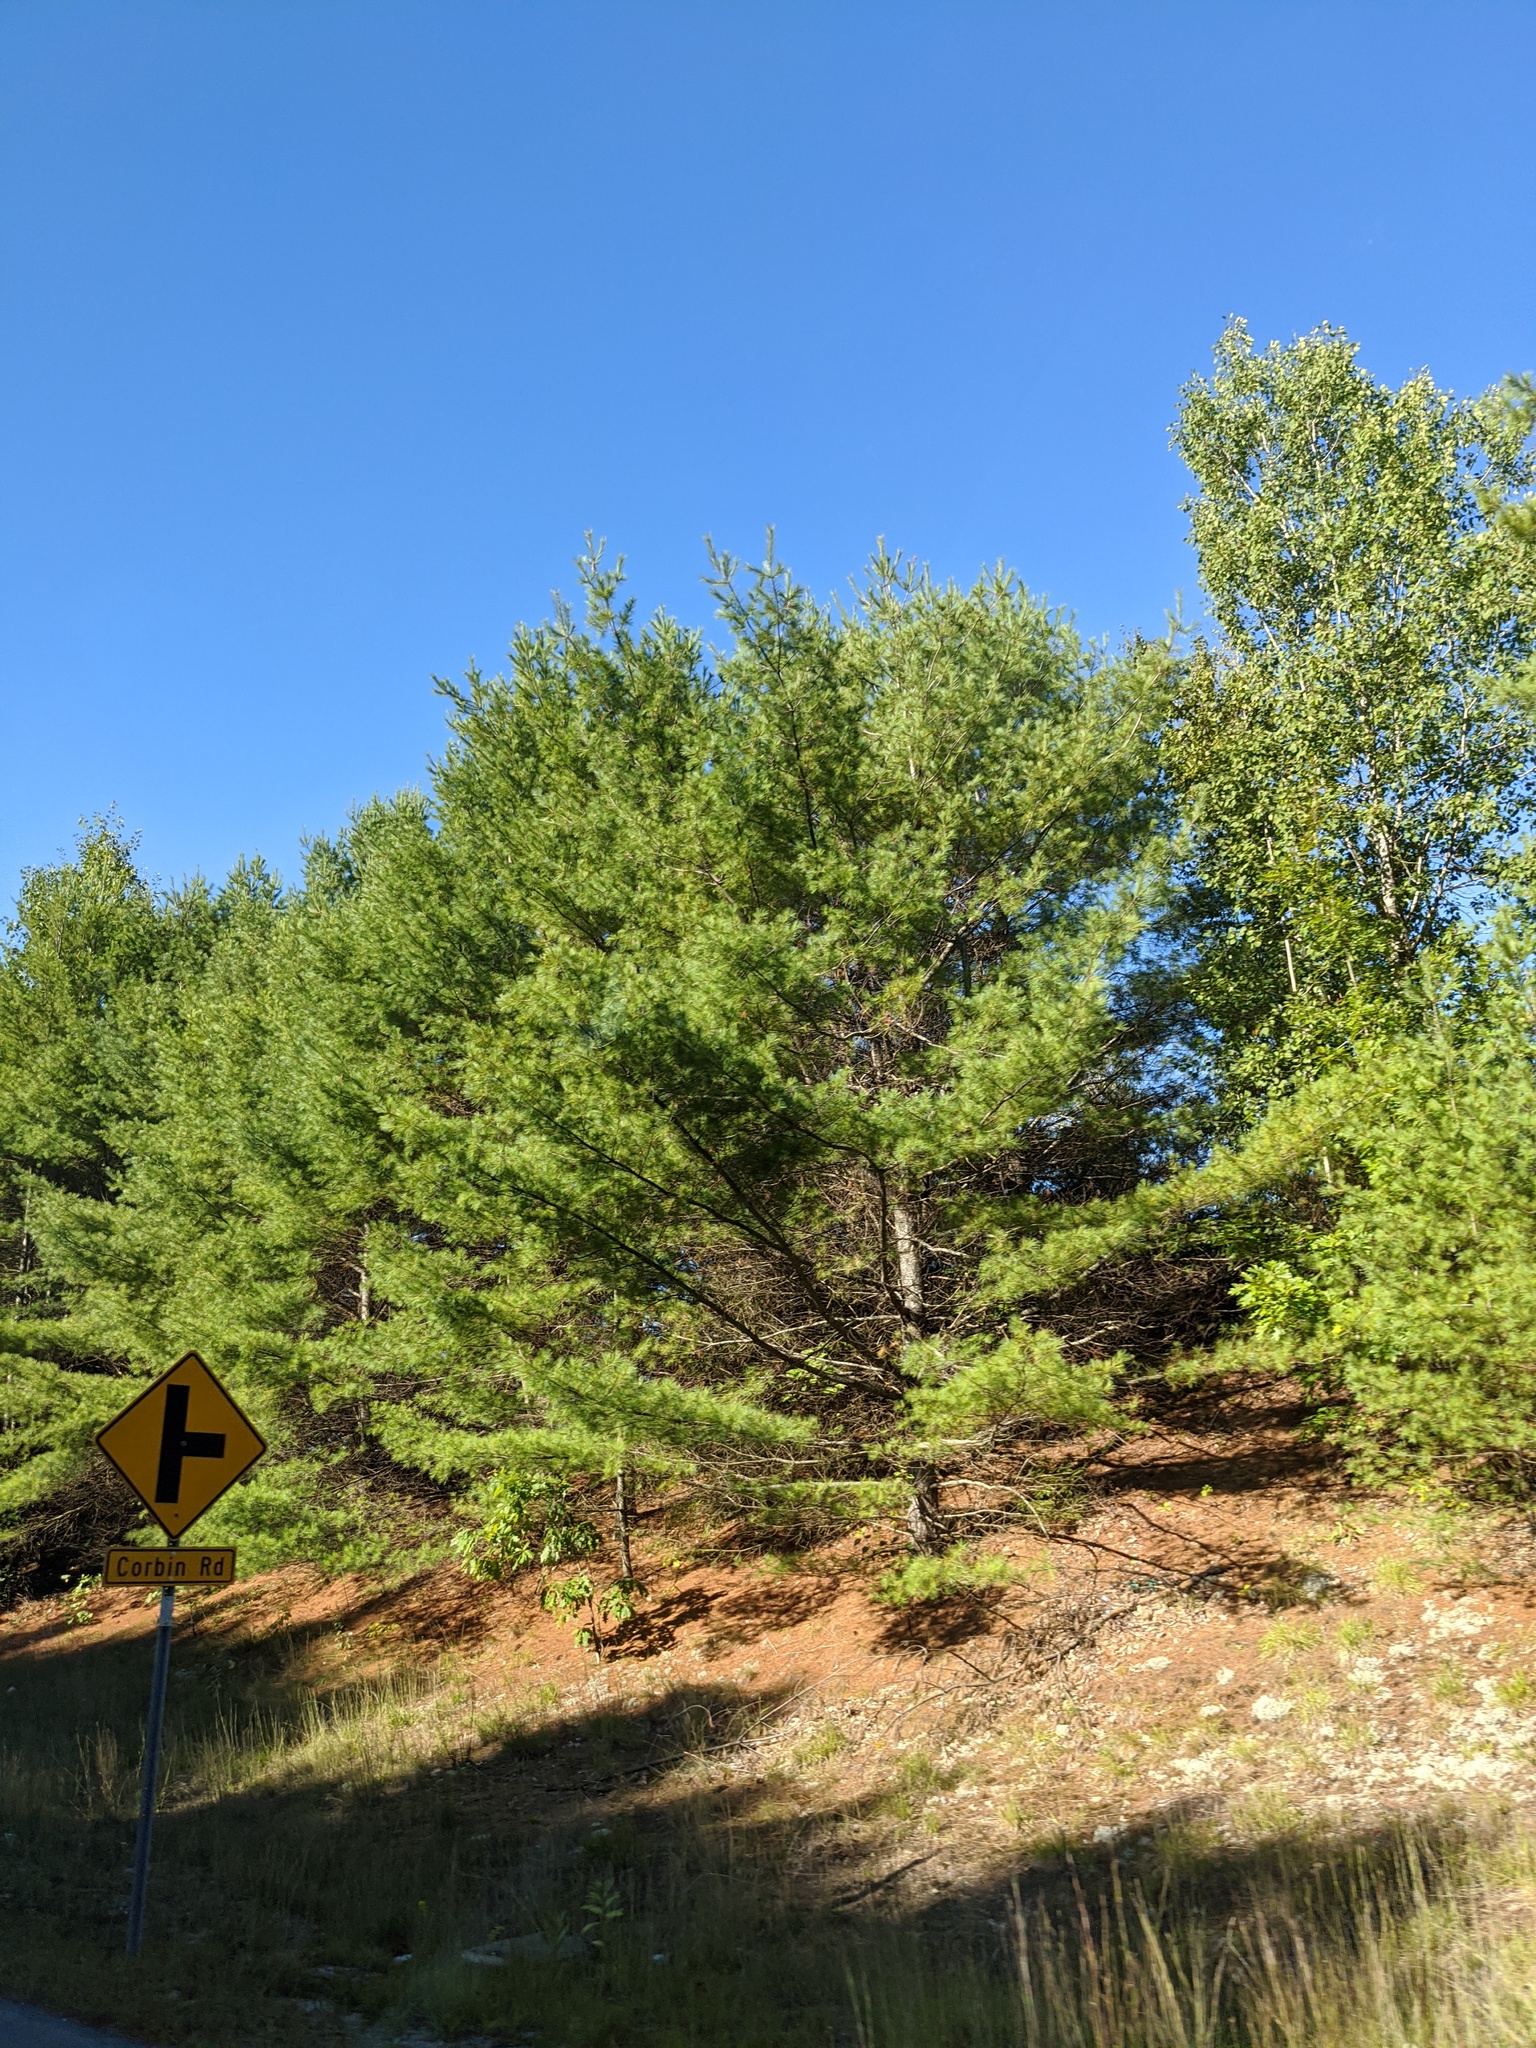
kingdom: Plantae
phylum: Tracheophyta
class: Pinopsida
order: Pinales
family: Pinaceae
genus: Pinus
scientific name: Pinus strobus
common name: Weymouth pine
